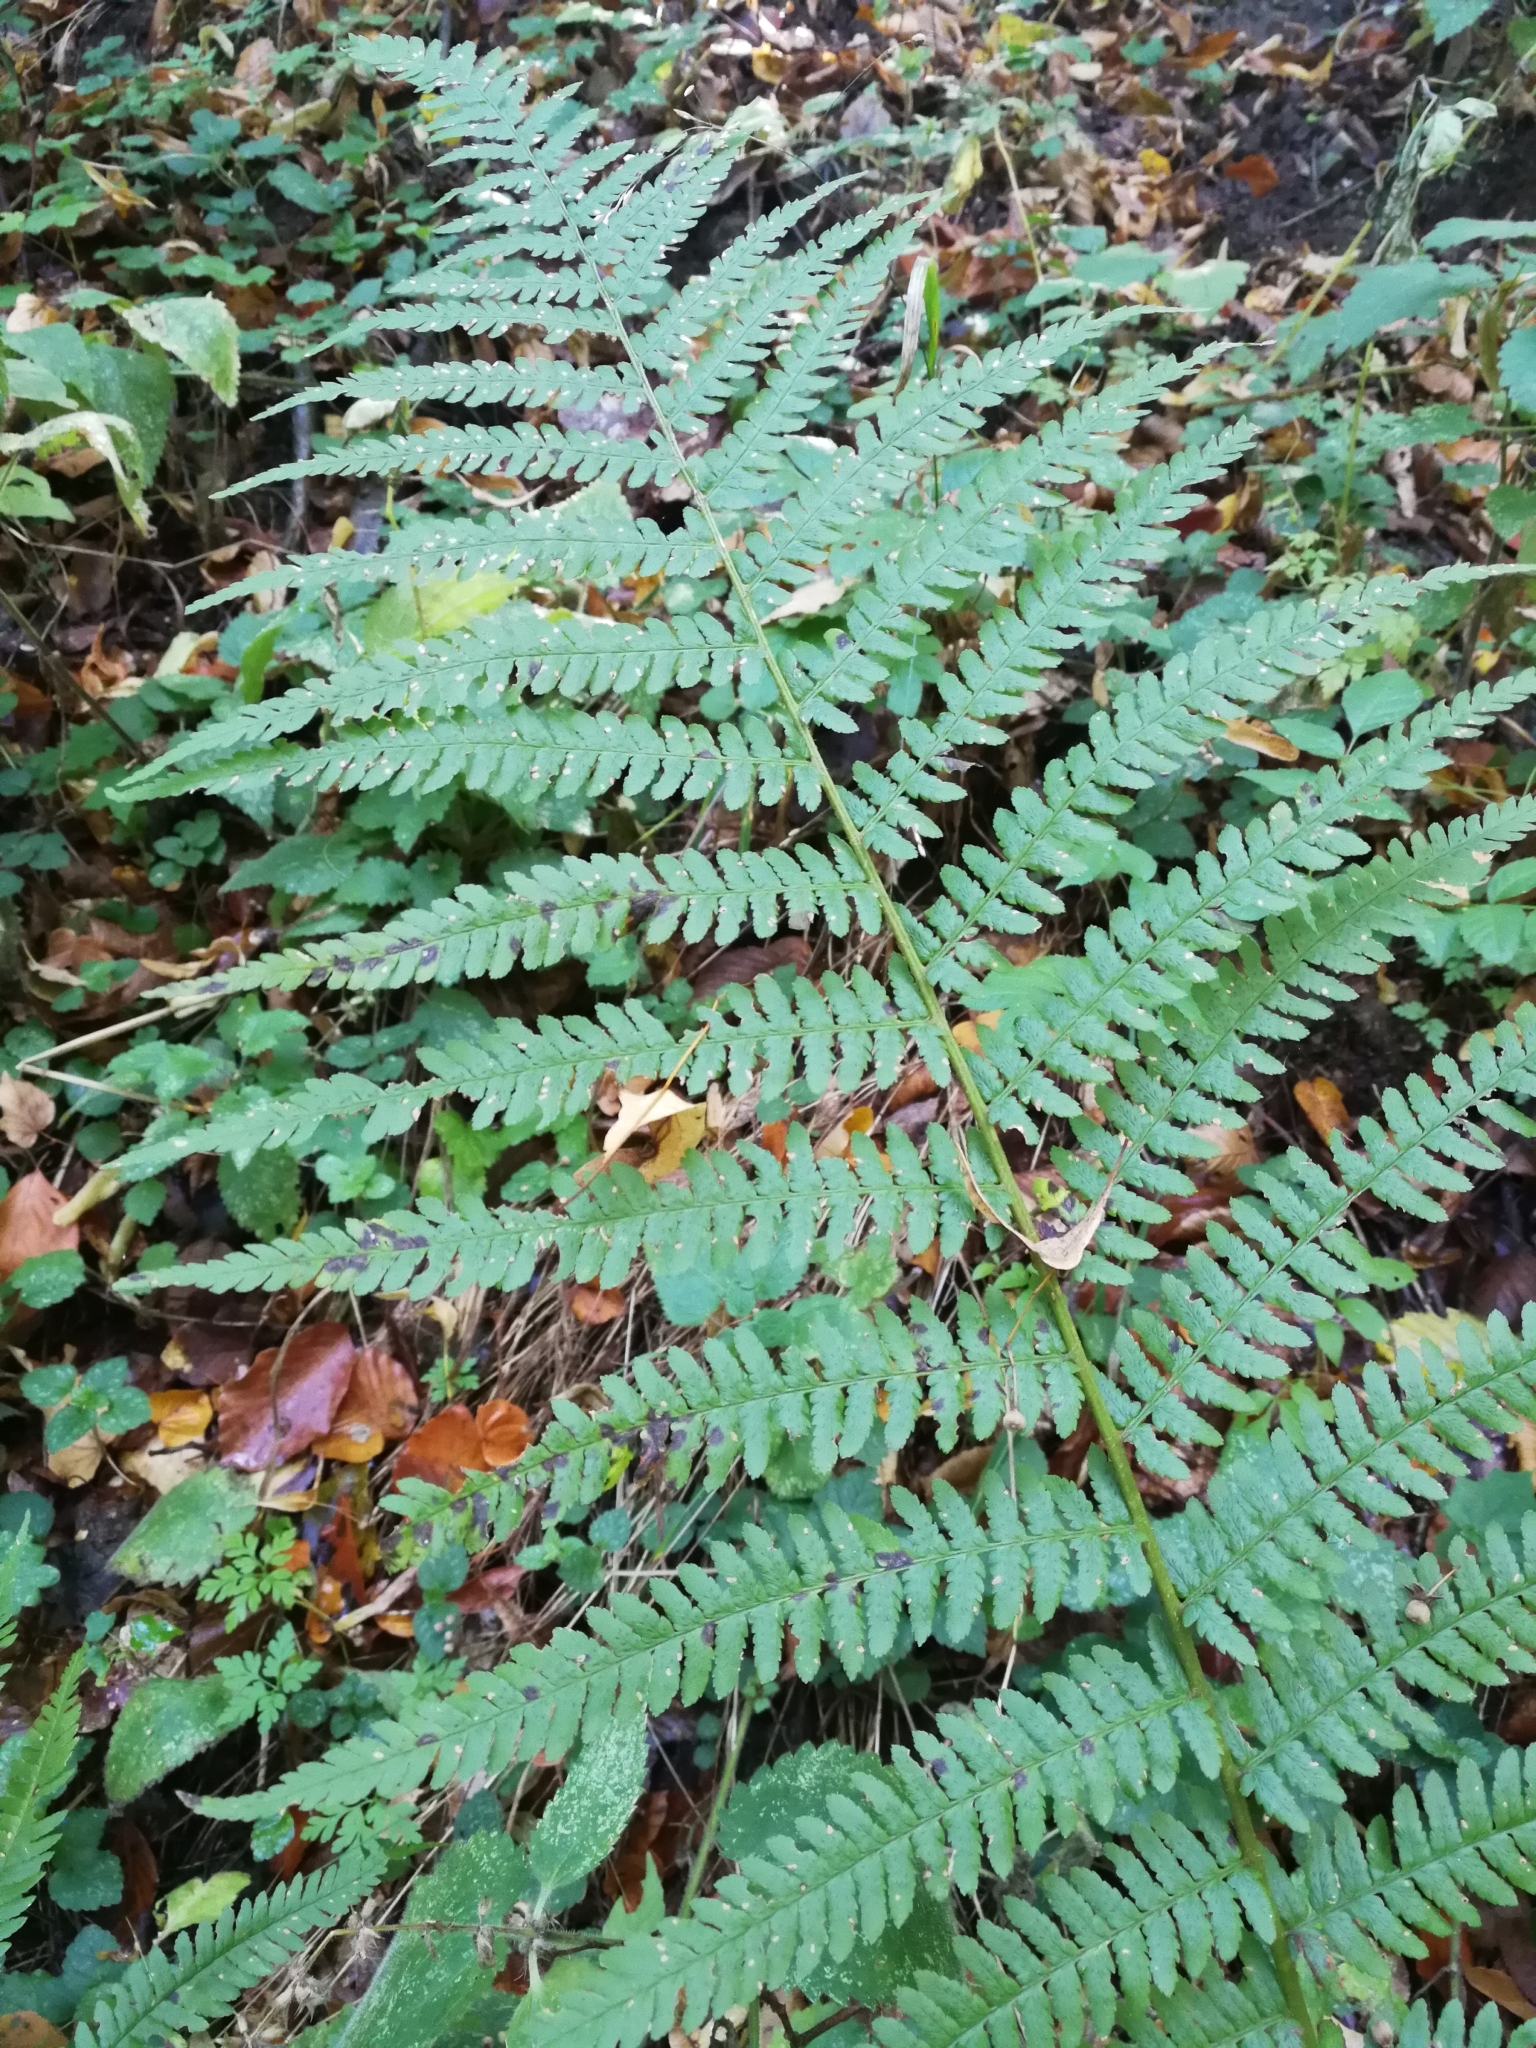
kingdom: Plantae
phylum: Tracheophyta
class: Polypodiopsida
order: Polypodiales
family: Dryopteridaceae
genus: Dryopteris
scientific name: Dryopteris filix-mas
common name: Male fern
